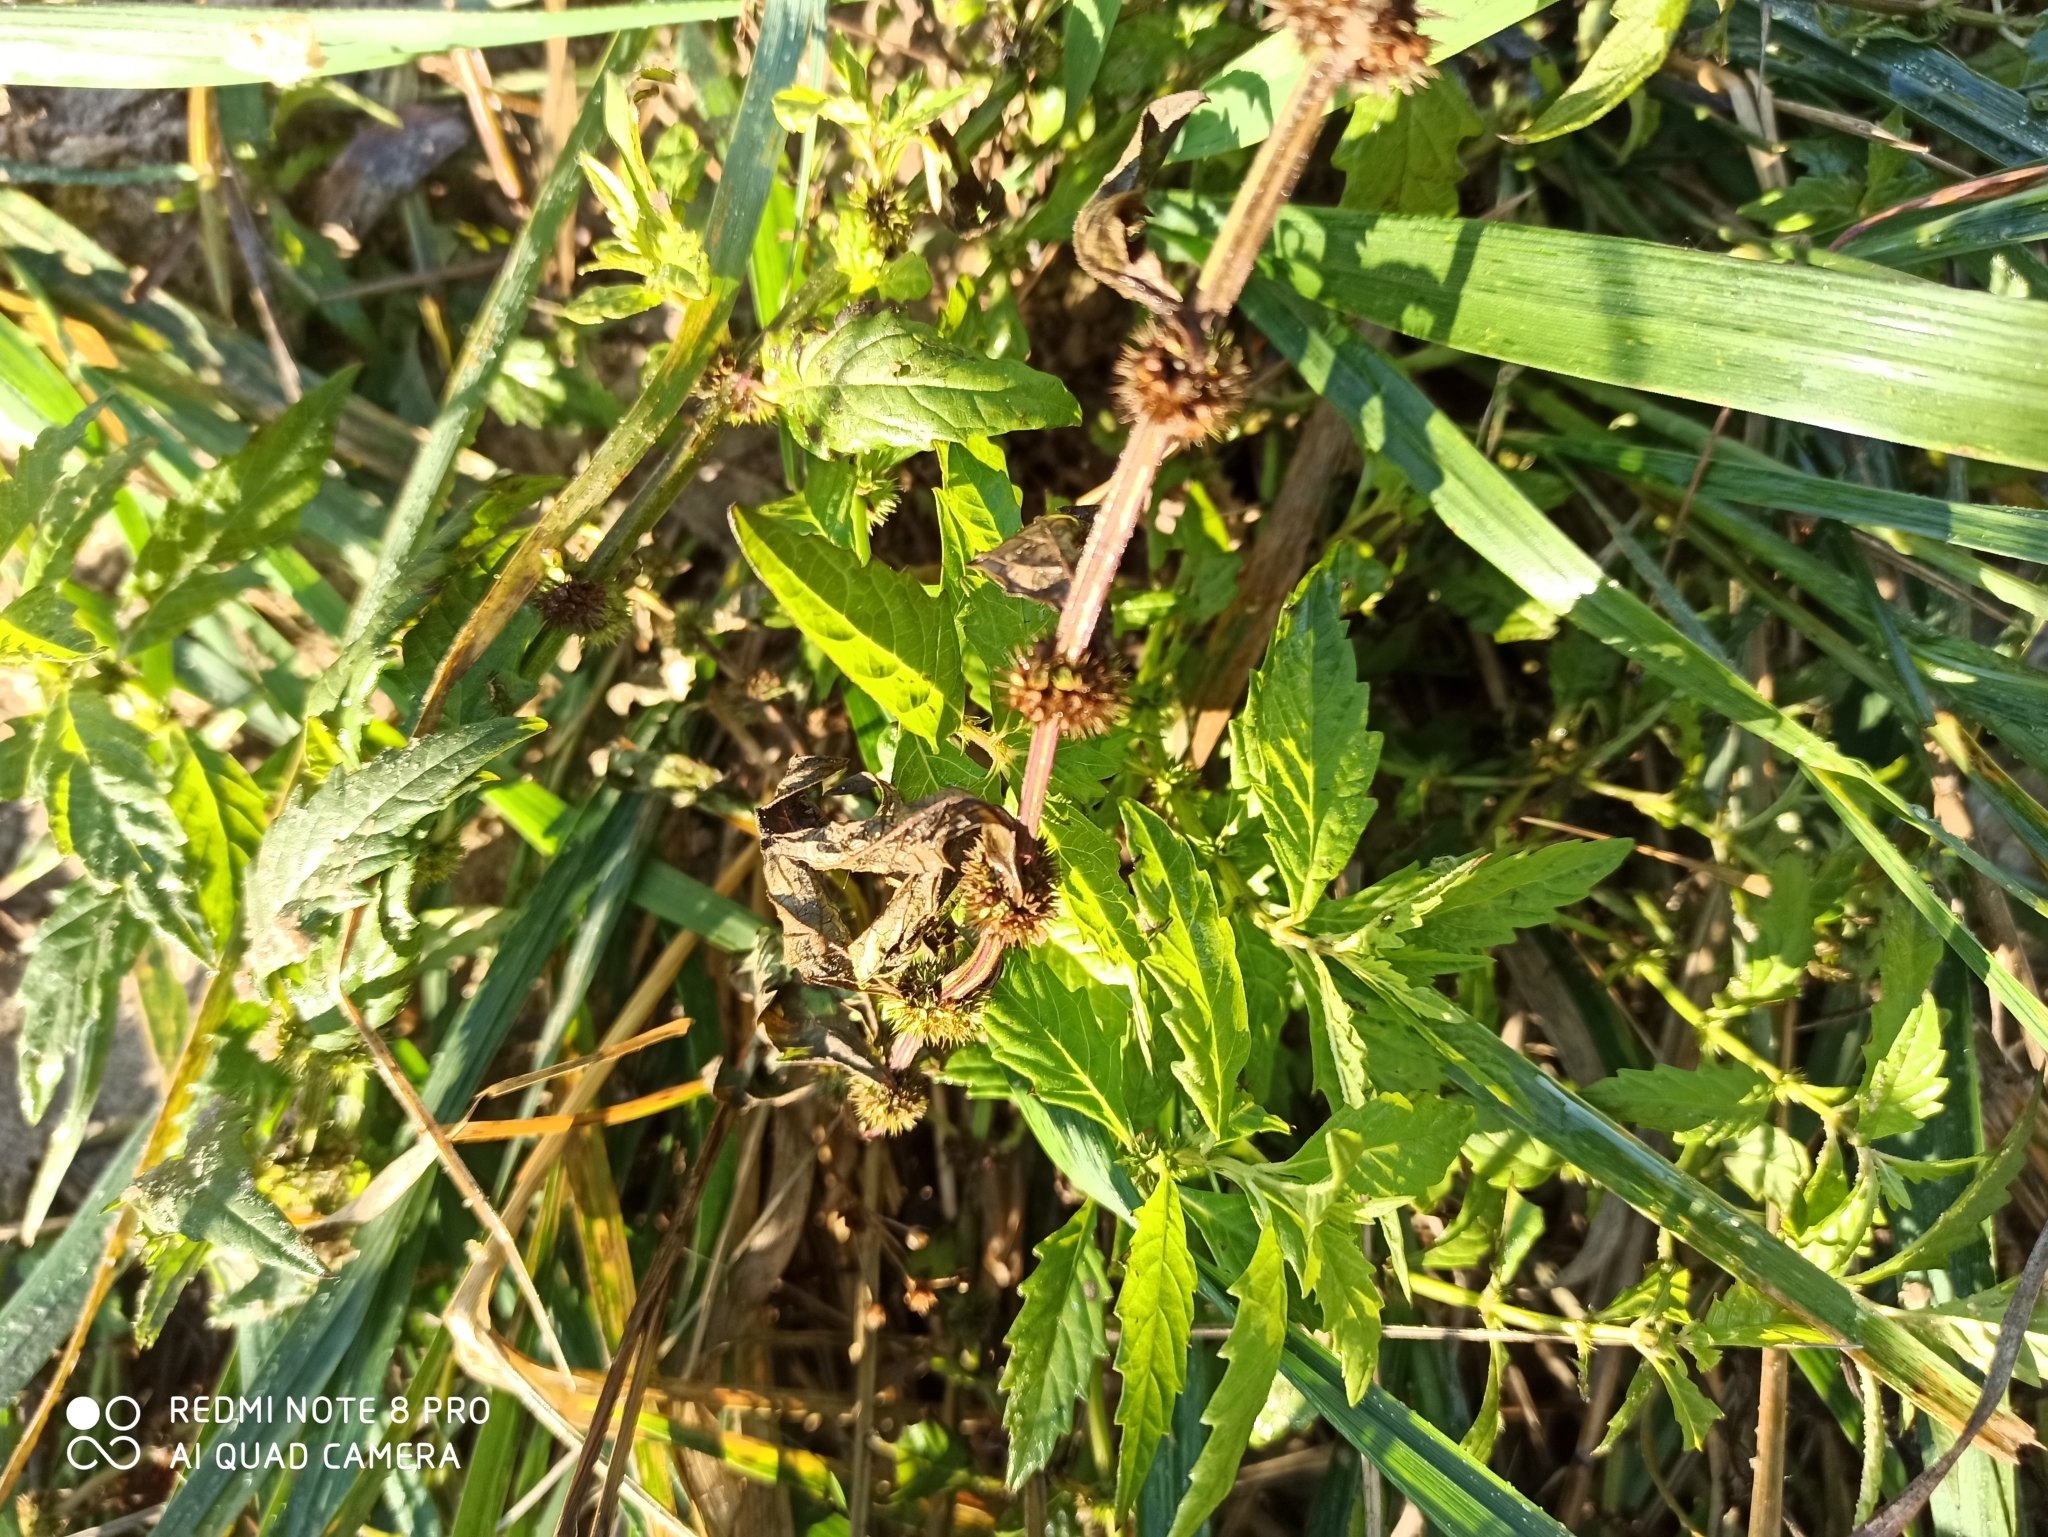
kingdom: Plantae
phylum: Tracheophyta
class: Magnoliopsida
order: Lamiales
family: Lamiaceae
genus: Lycopus
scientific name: Lycopus europaeus
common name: European bugleweed
